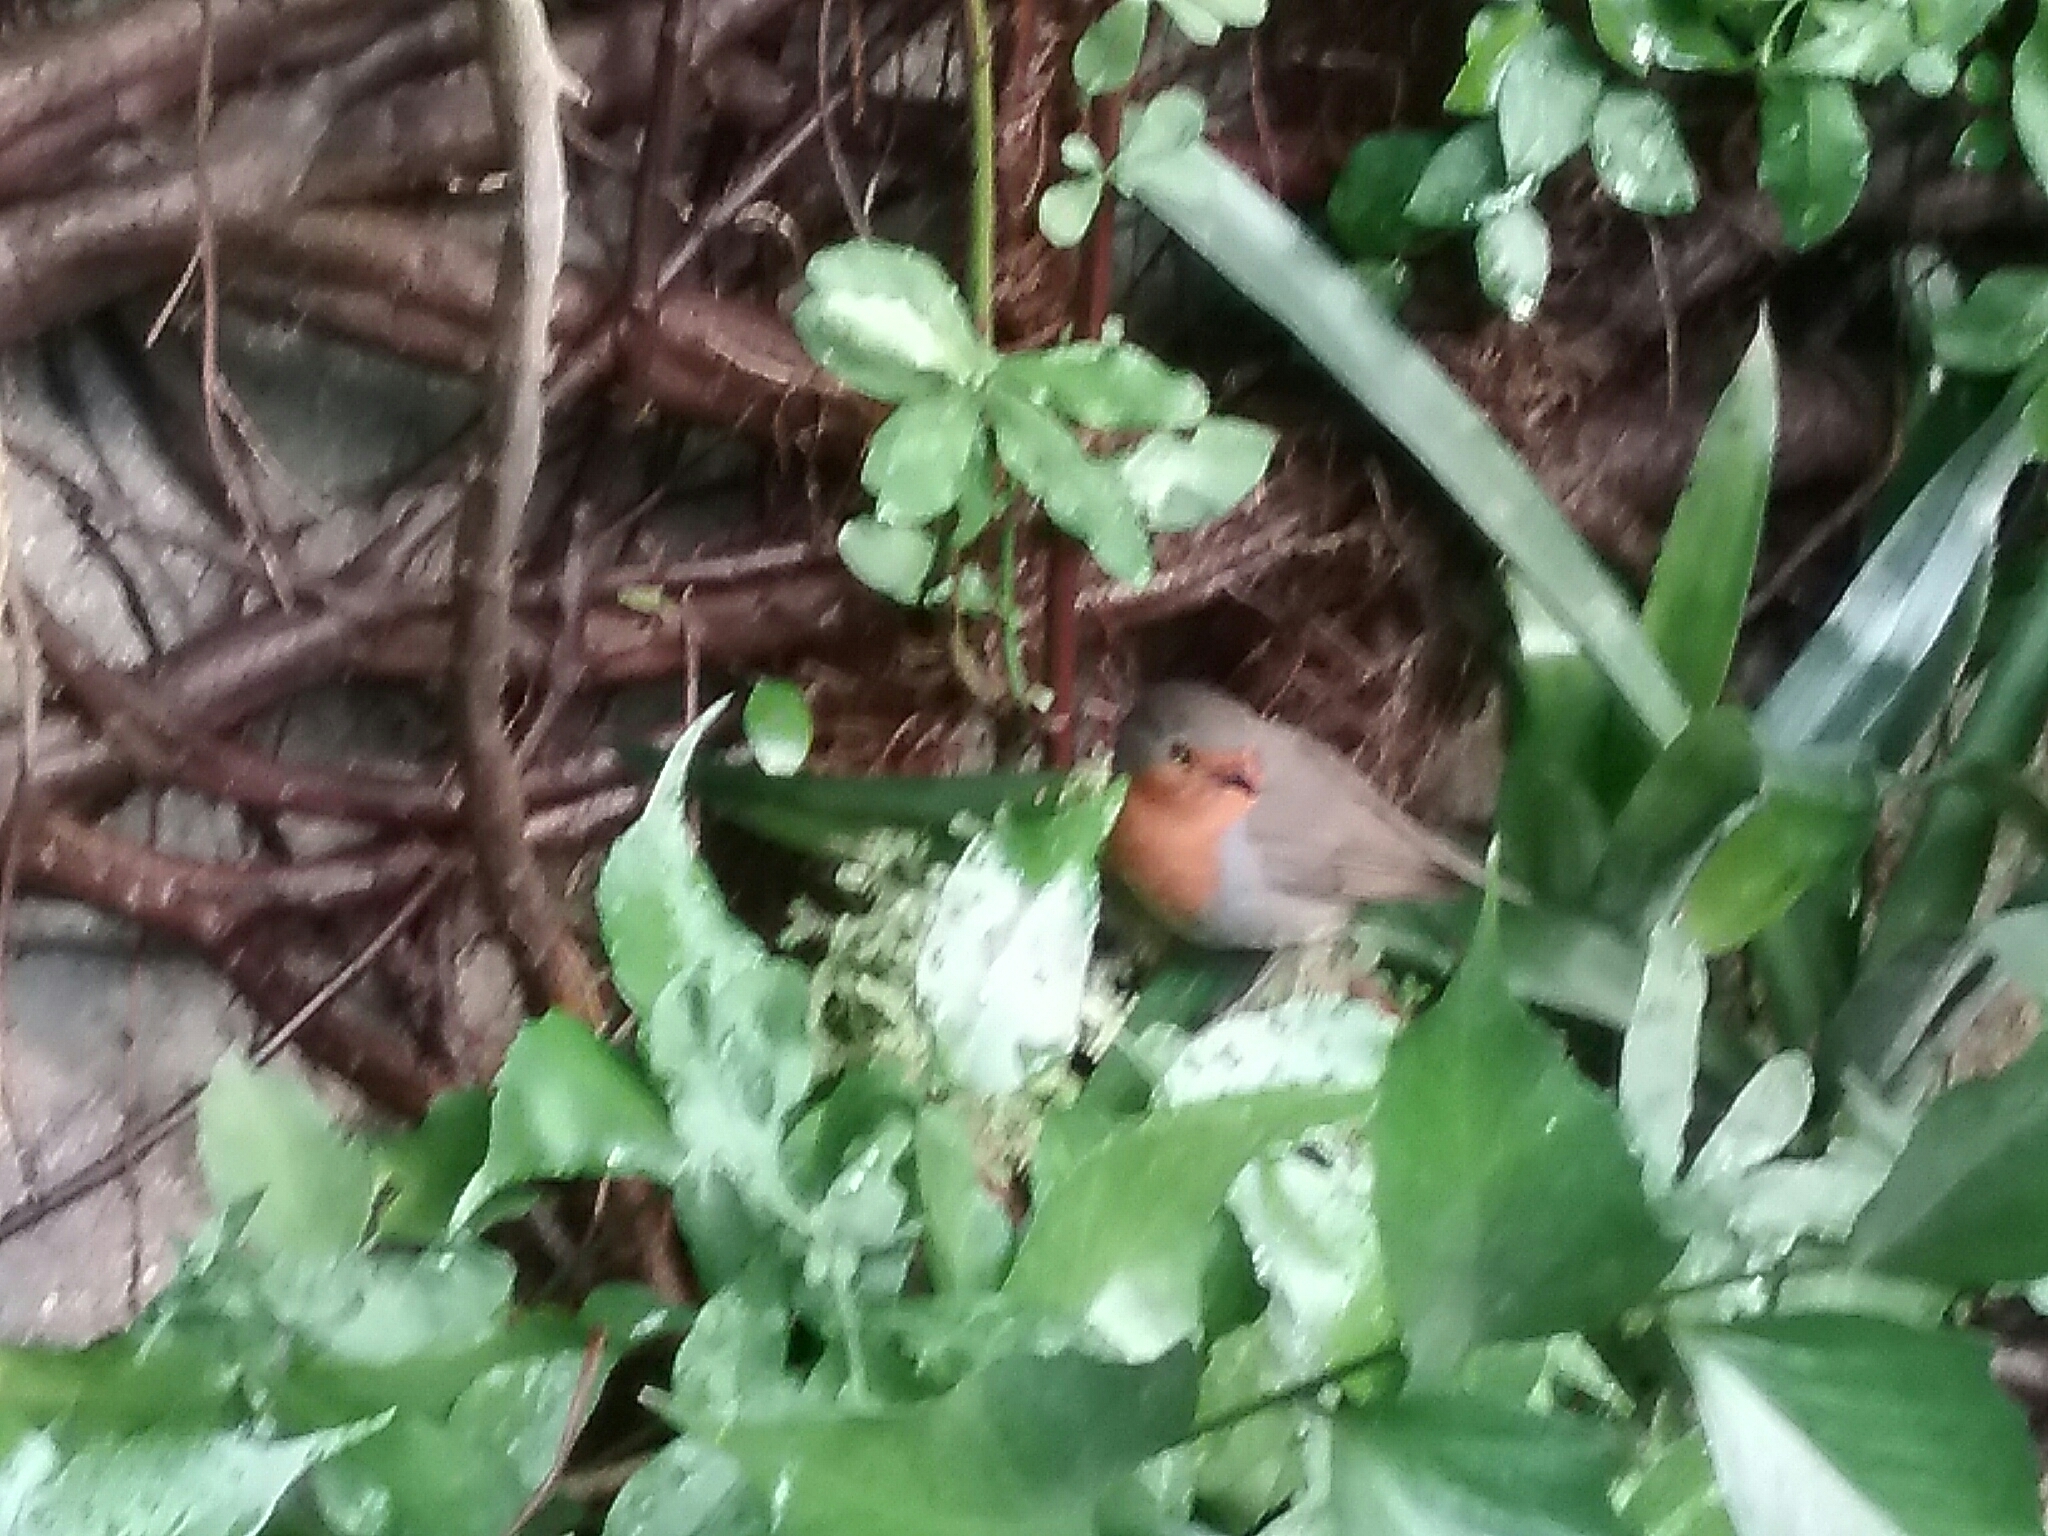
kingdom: Animalia
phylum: Chordata
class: Aves
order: Passeriformes
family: Muscicapidae
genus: Erithacus
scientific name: Erithacus rubecula
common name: European robin
